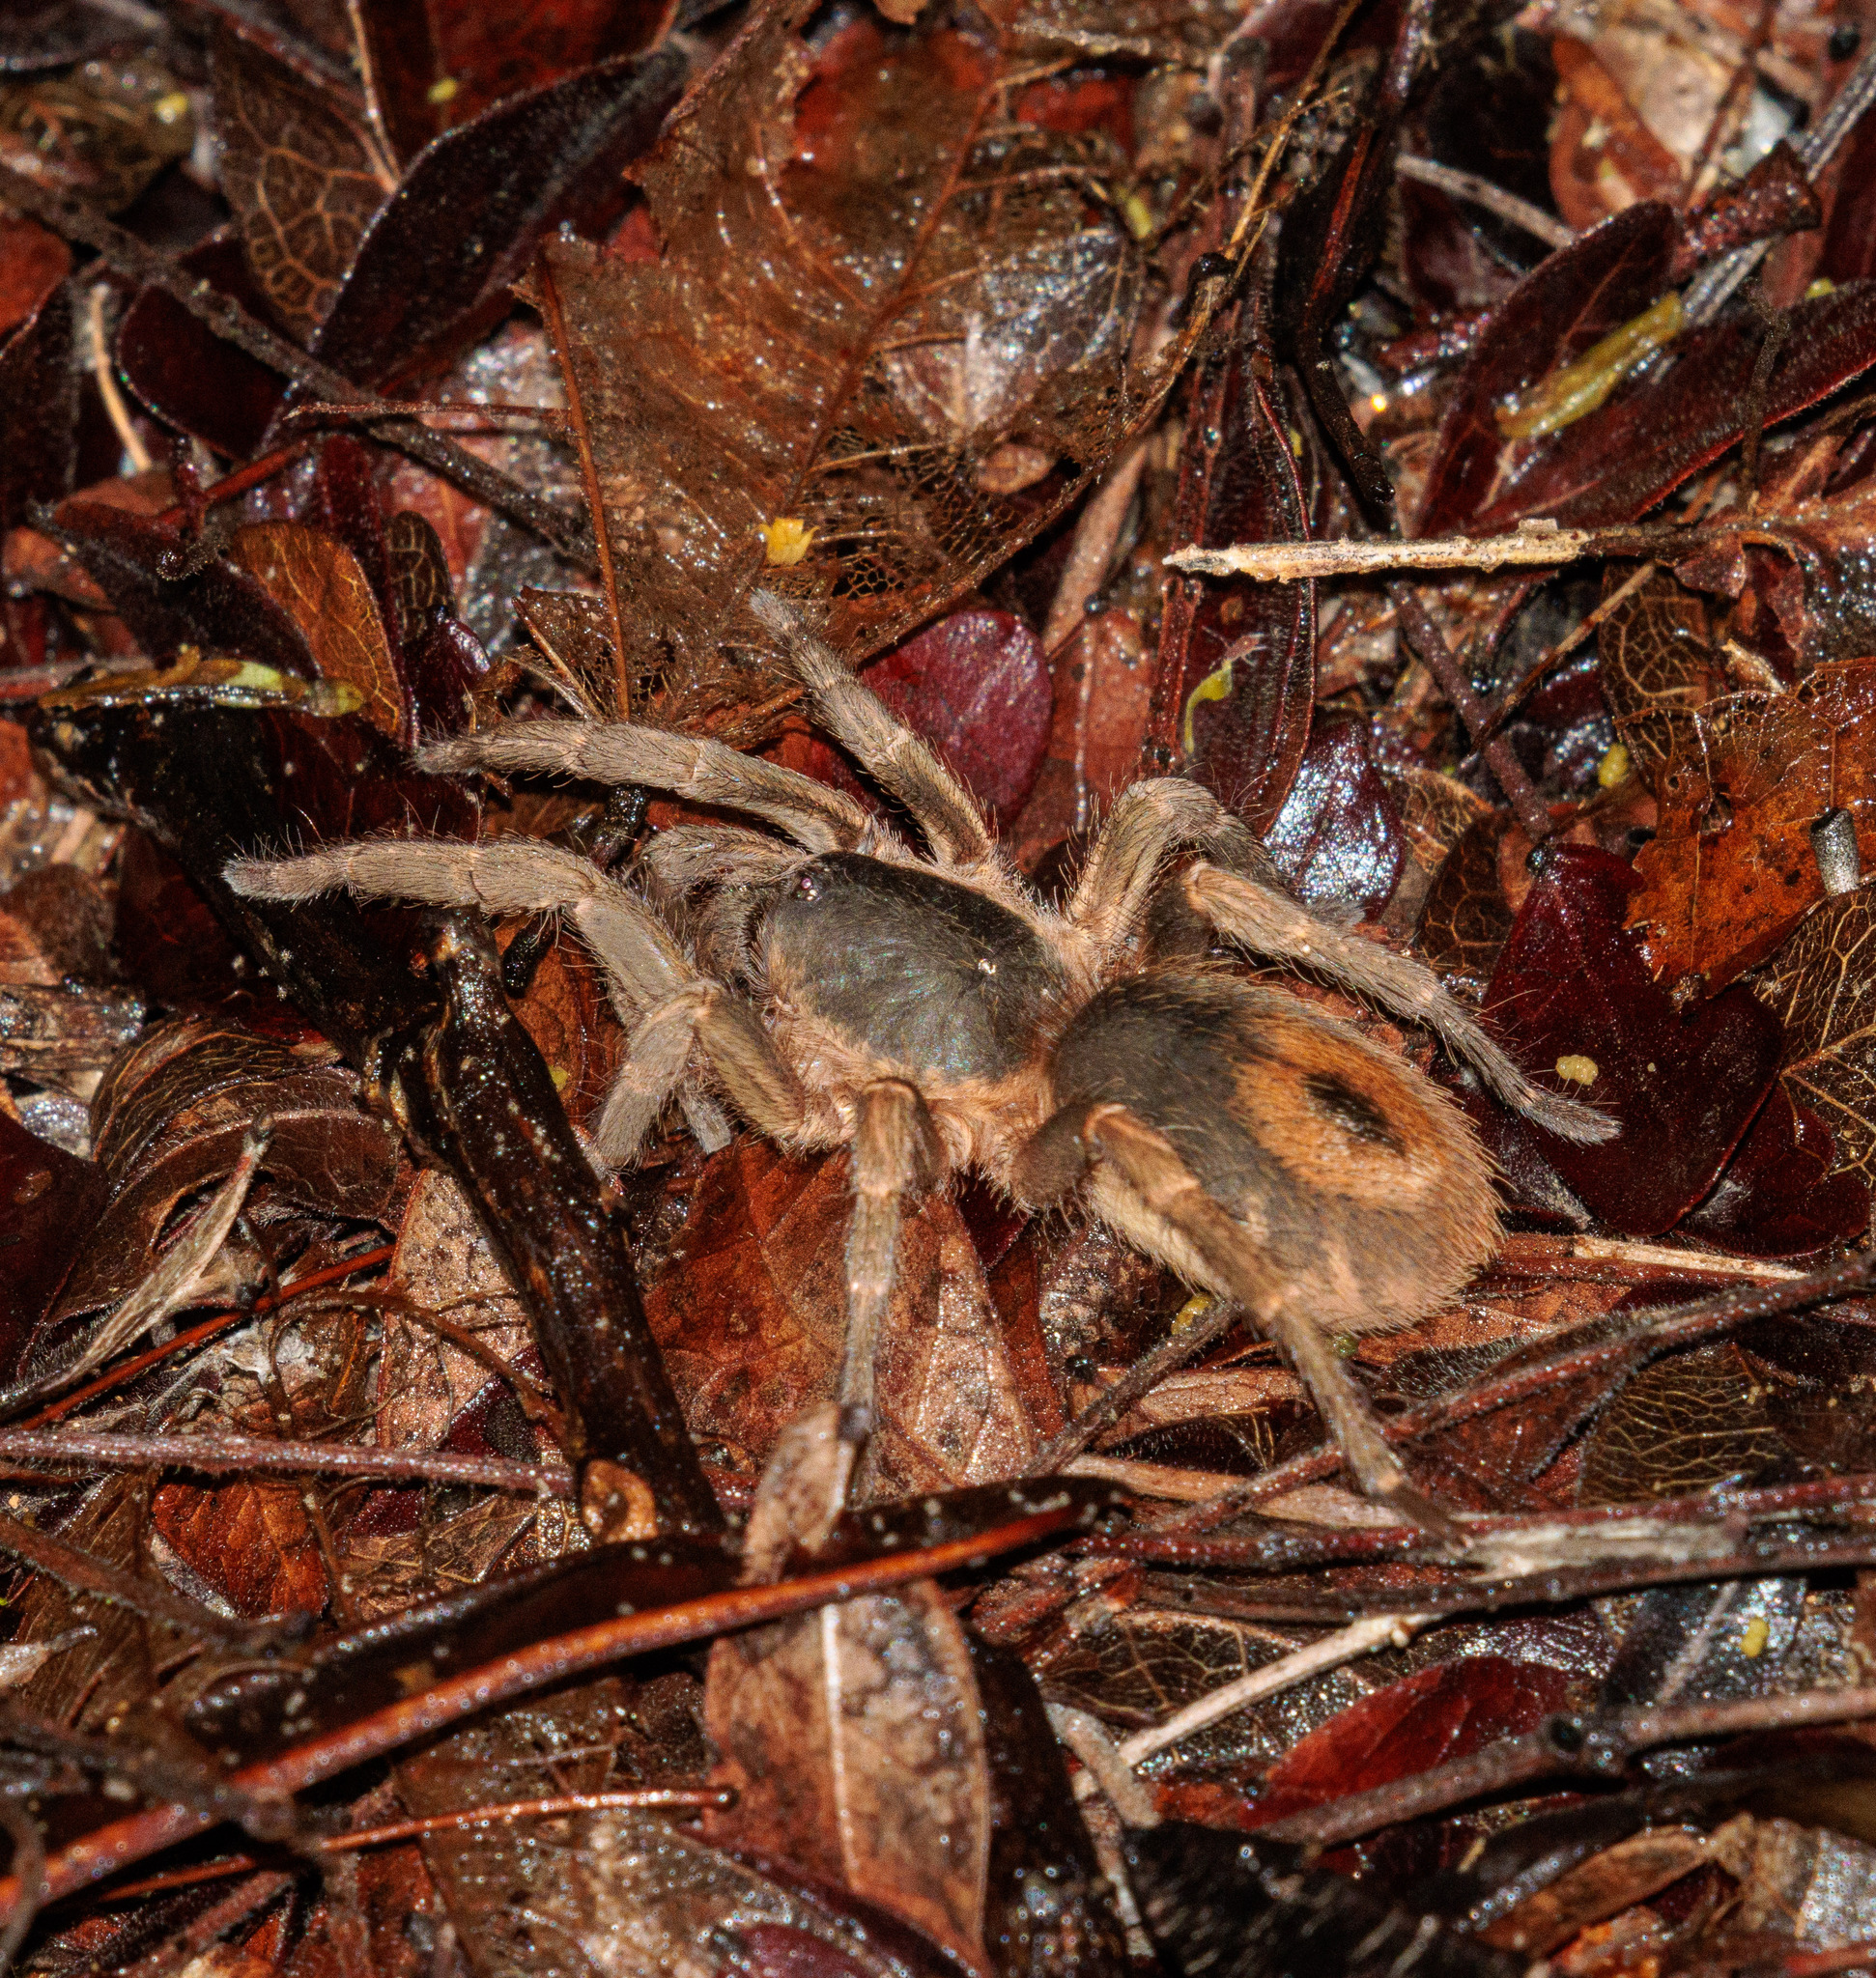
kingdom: Animalia
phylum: Arthropoda
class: Arachnida
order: Araneae
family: Theraphosidae
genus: Tmesiphantes
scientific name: Tmesiphantes nordestinus
